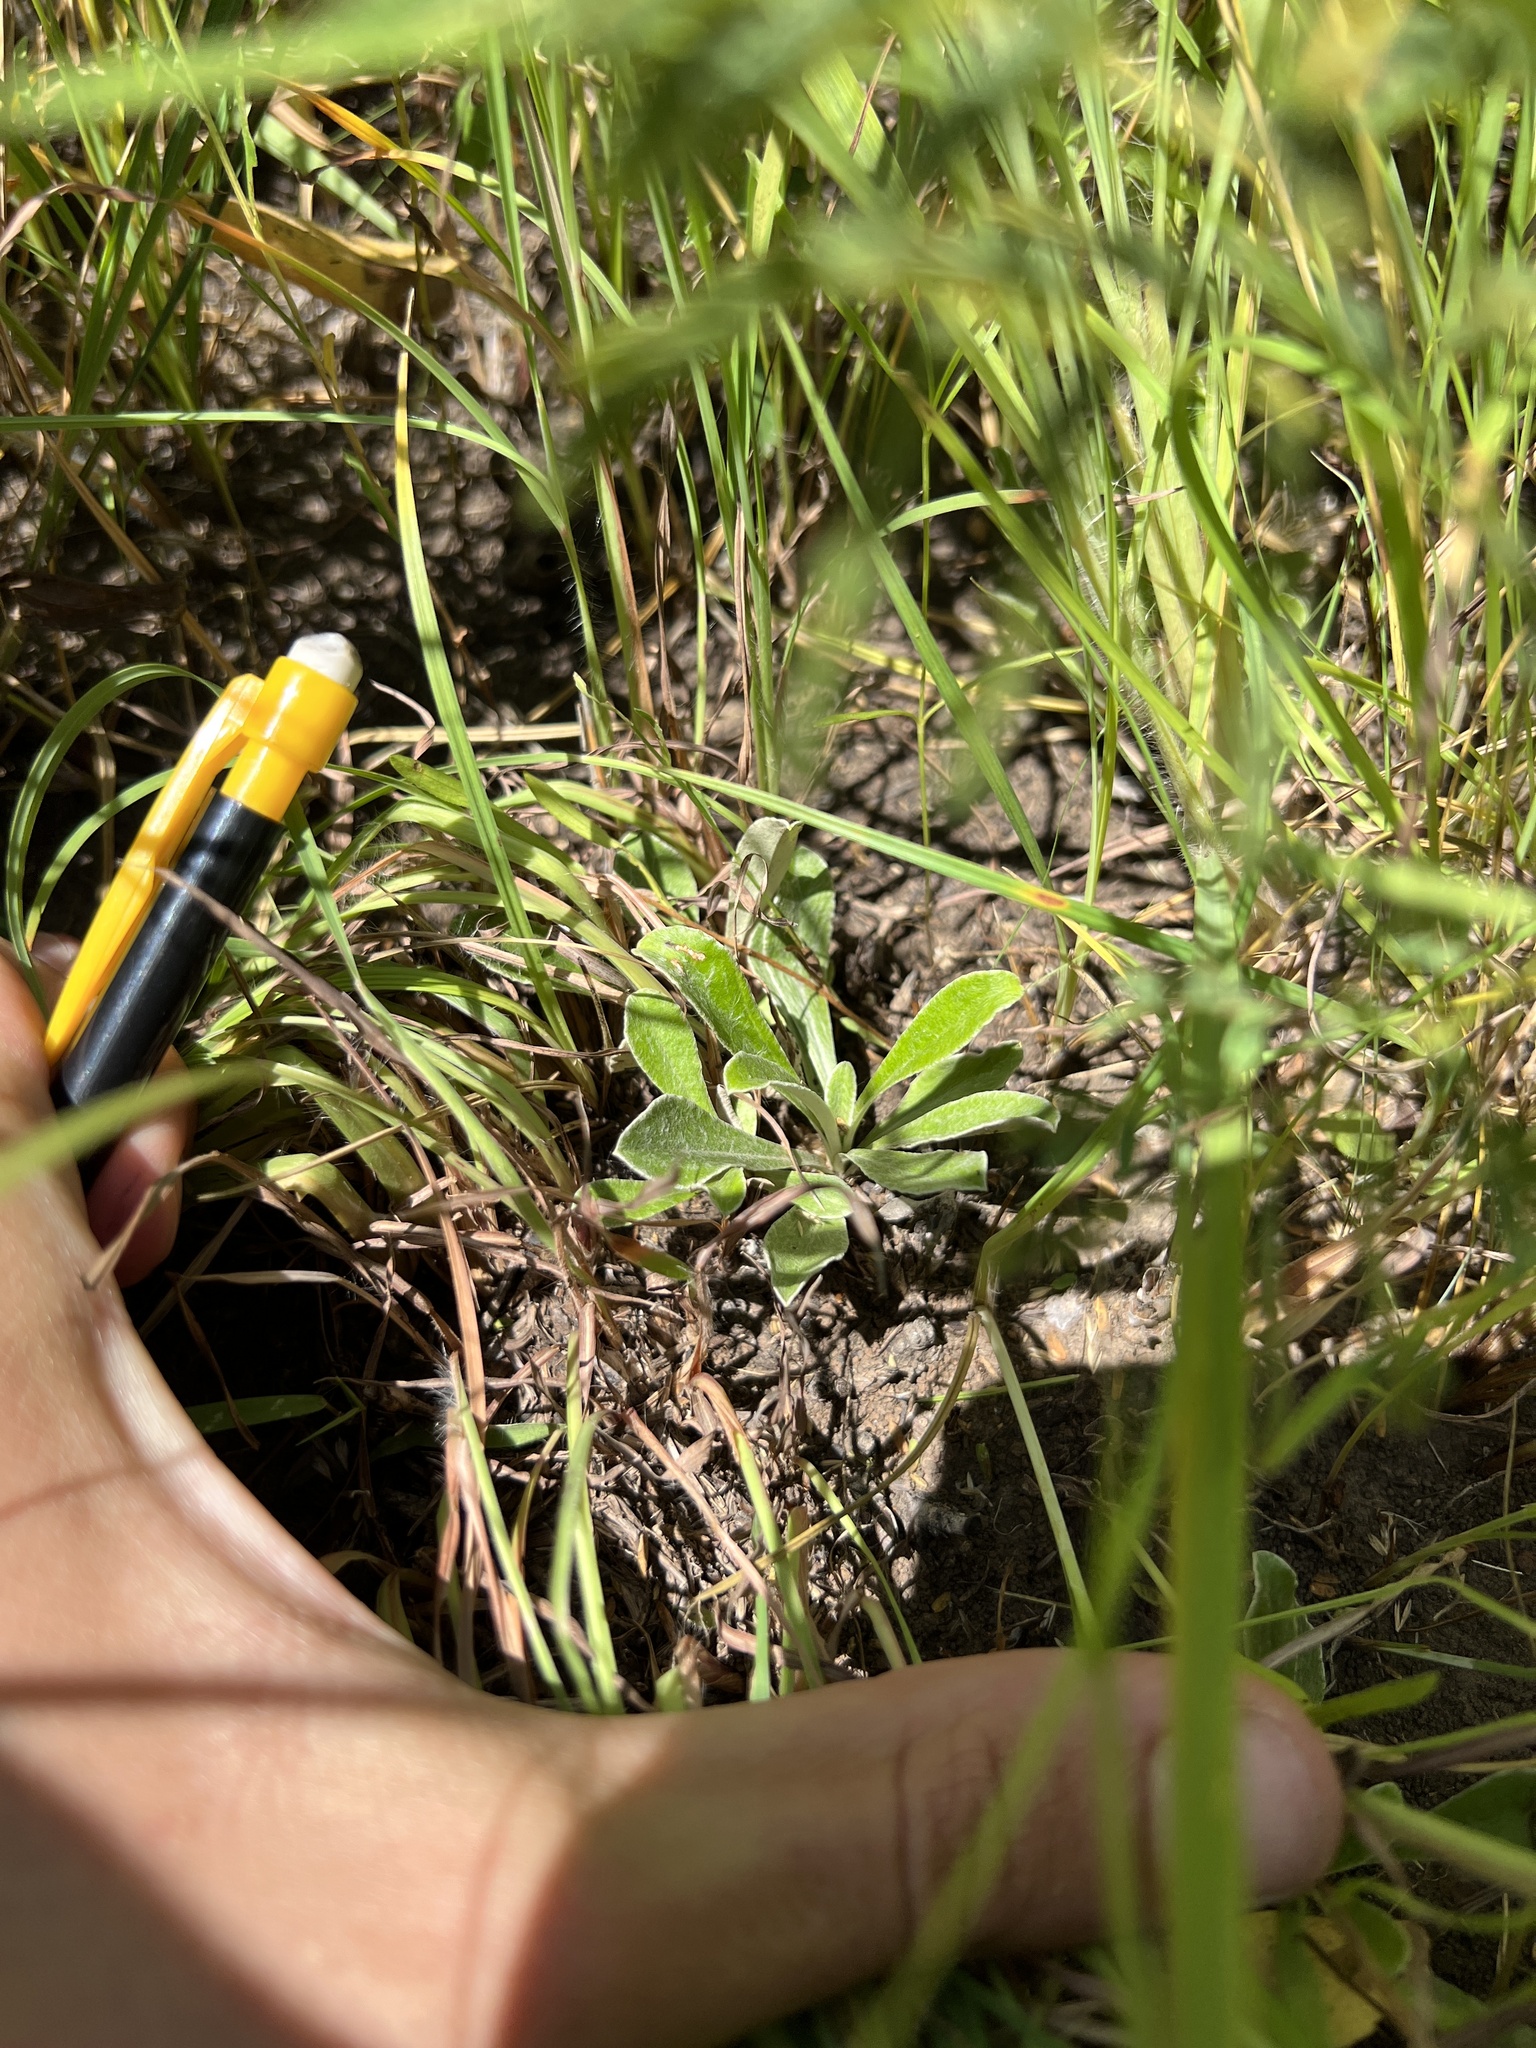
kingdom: Plantae
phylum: Tracheophyta
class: Magnoliopsida
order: Asterales
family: Asteraceae
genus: Antennaria
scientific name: Antennaria neglecta
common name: Field pussytoes
